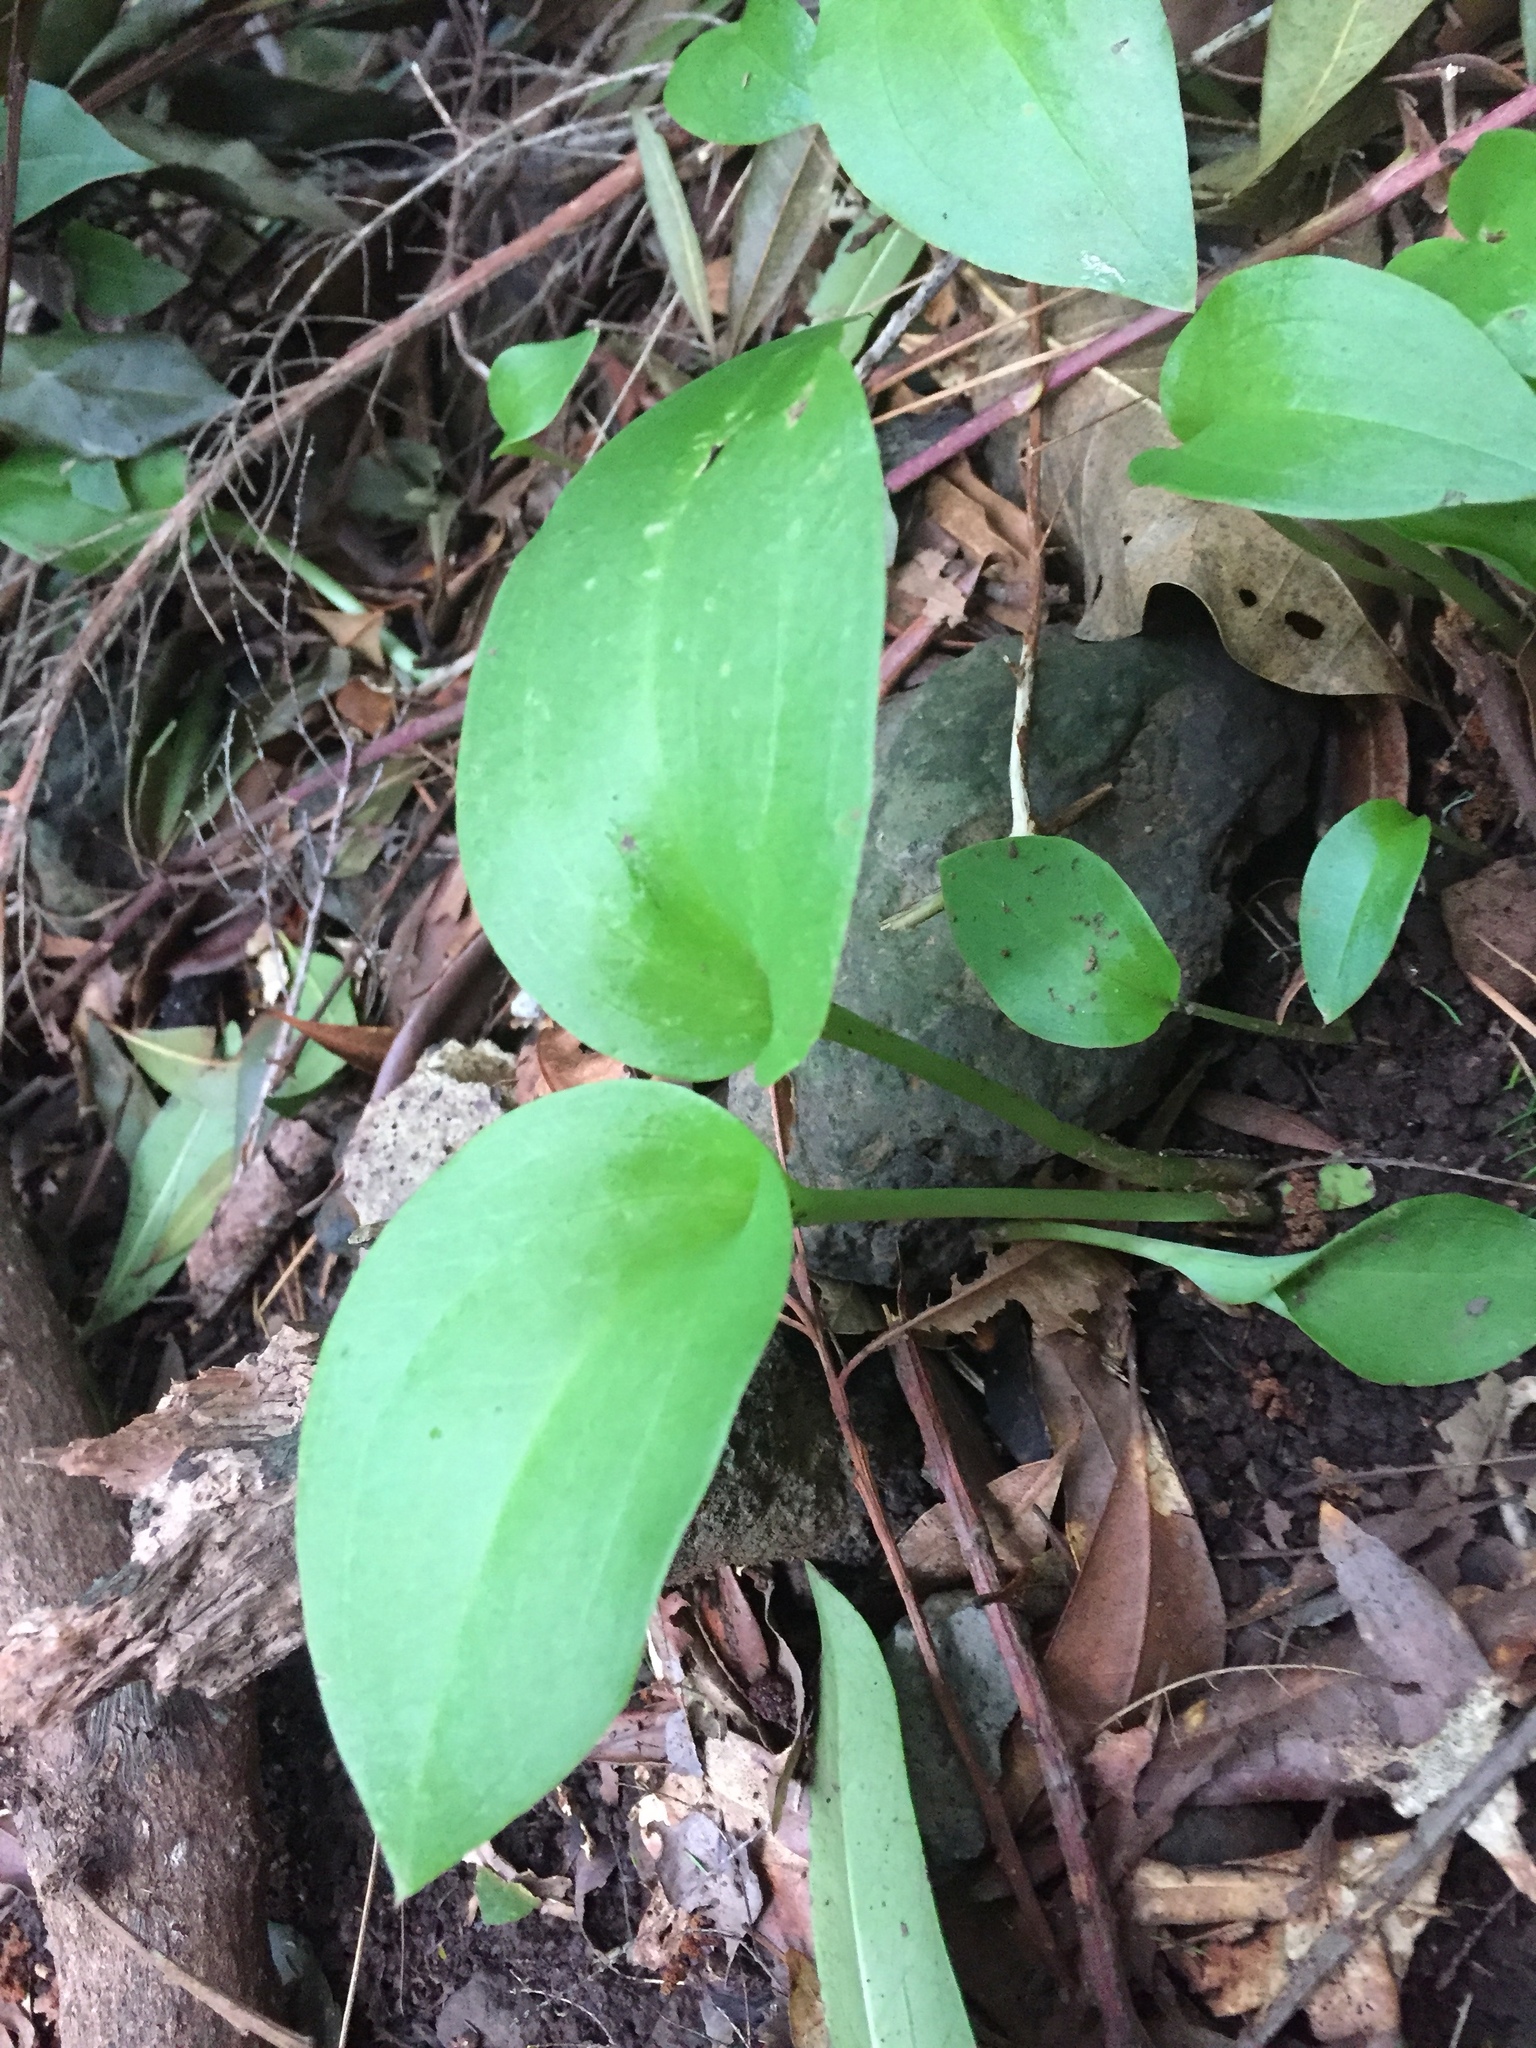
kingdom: Plantae
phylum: Tracheophyta
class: Liliopsida
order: Asparagales
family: Orchidaceae
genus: Gennaria
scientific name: Gennaria diphylla
